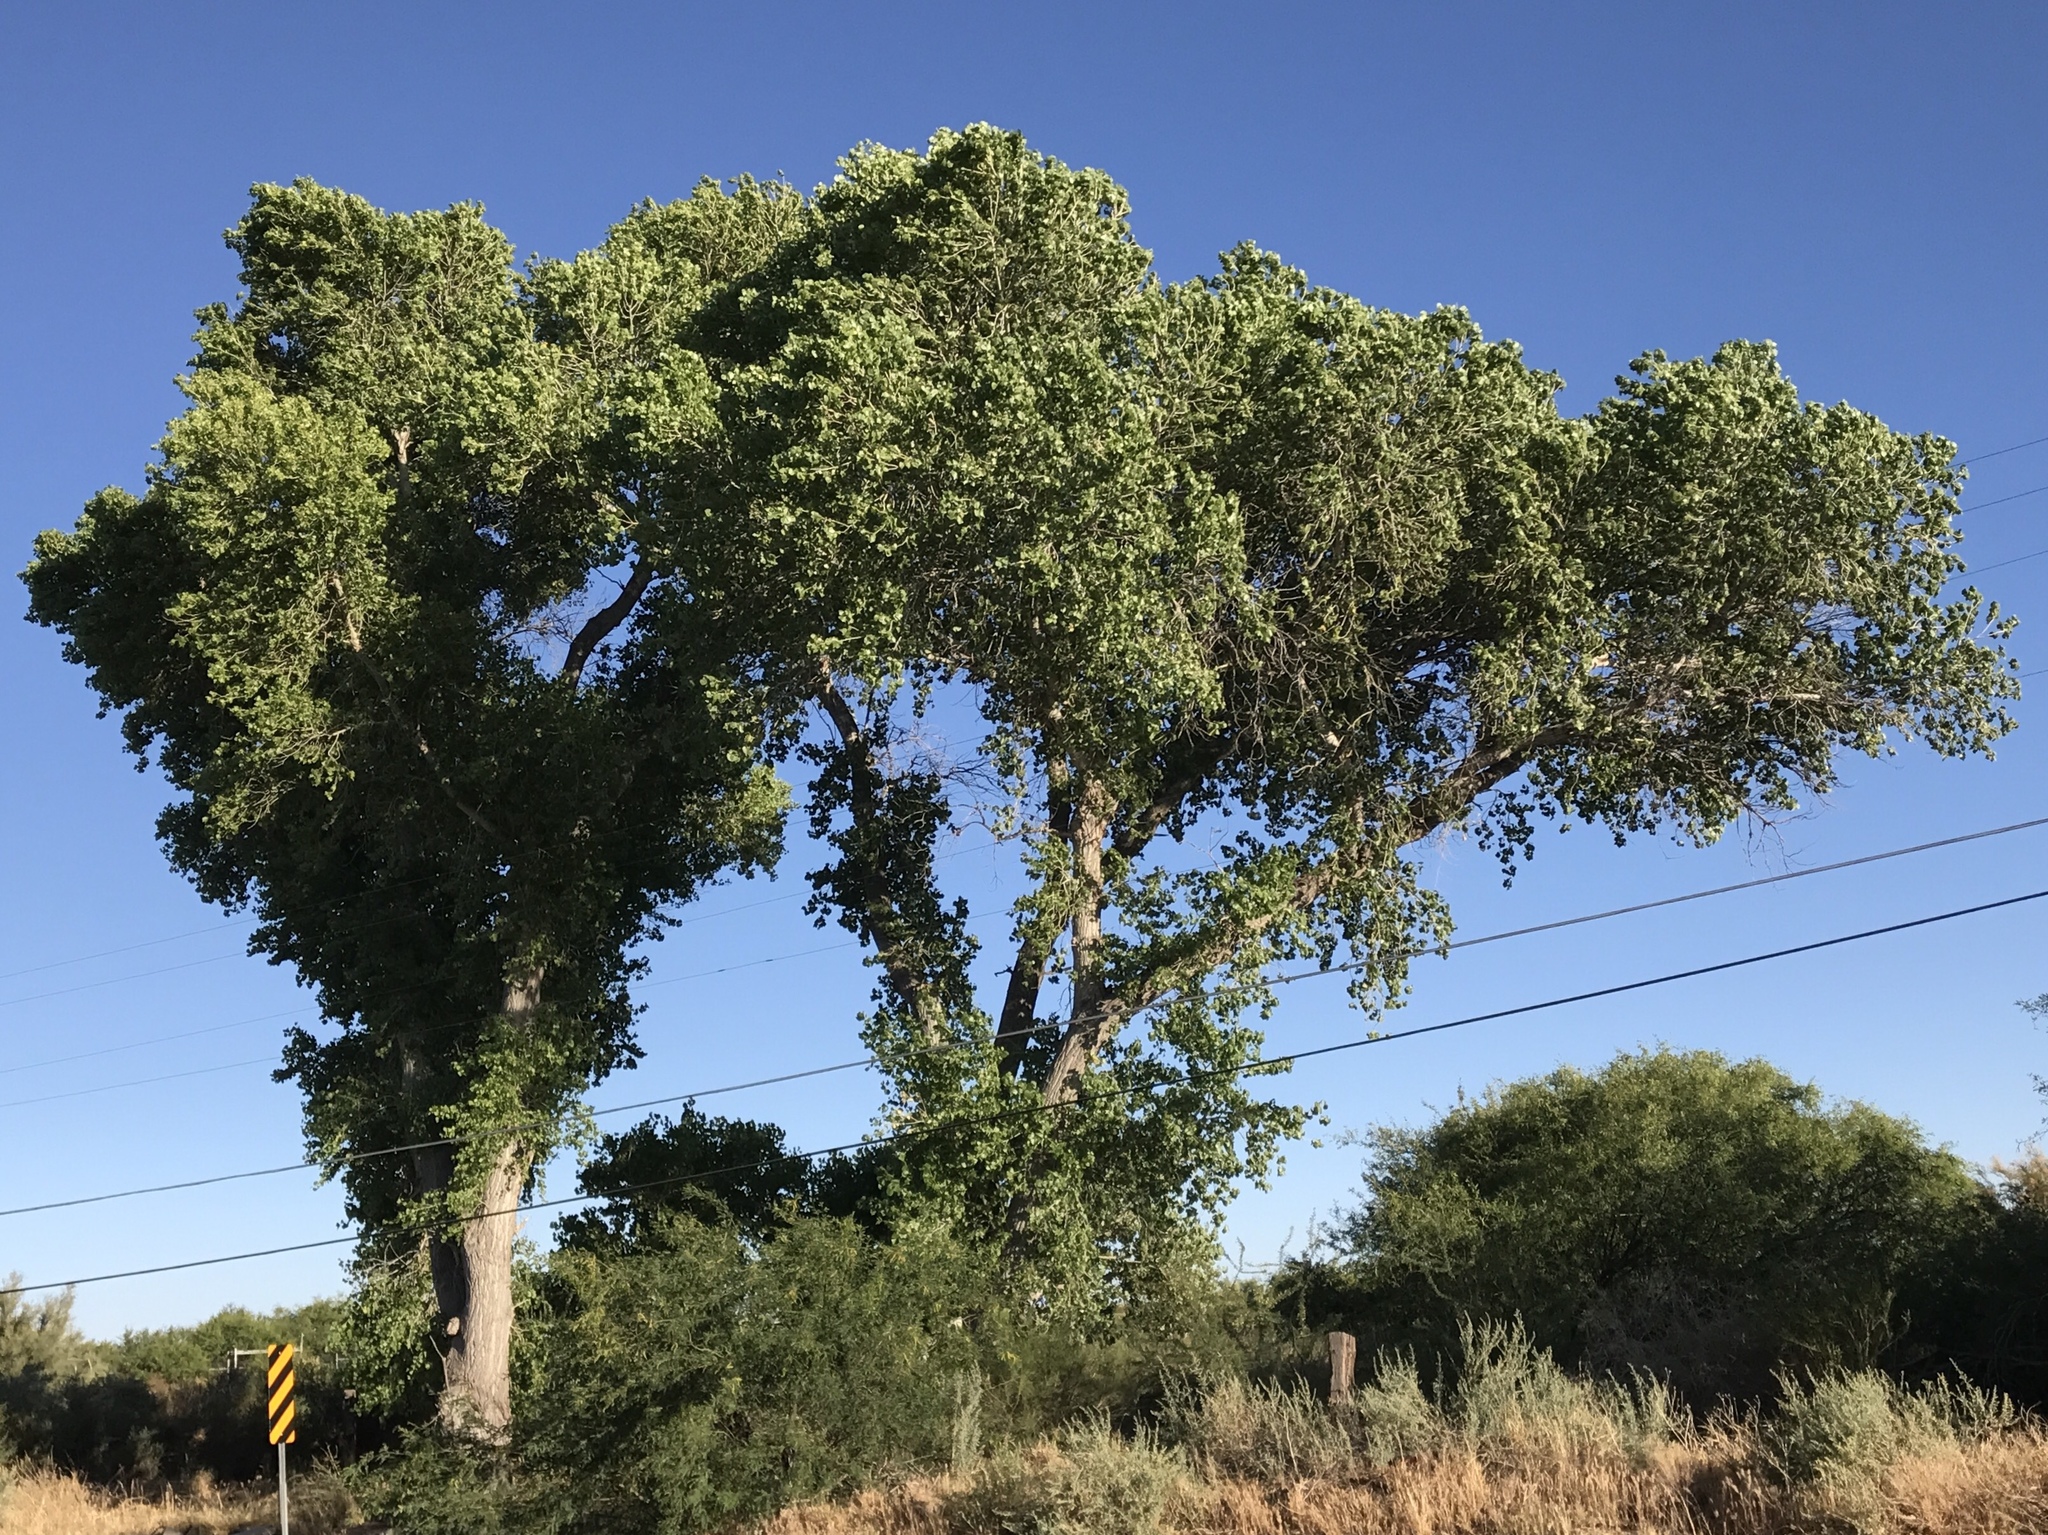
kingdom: Plantae
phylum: Tracheophyta
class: Magnoliopsida
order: Malpighiales
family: Salicaceae
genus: Populus
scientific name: Populus fremontii
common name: Fremont's cottonwood
